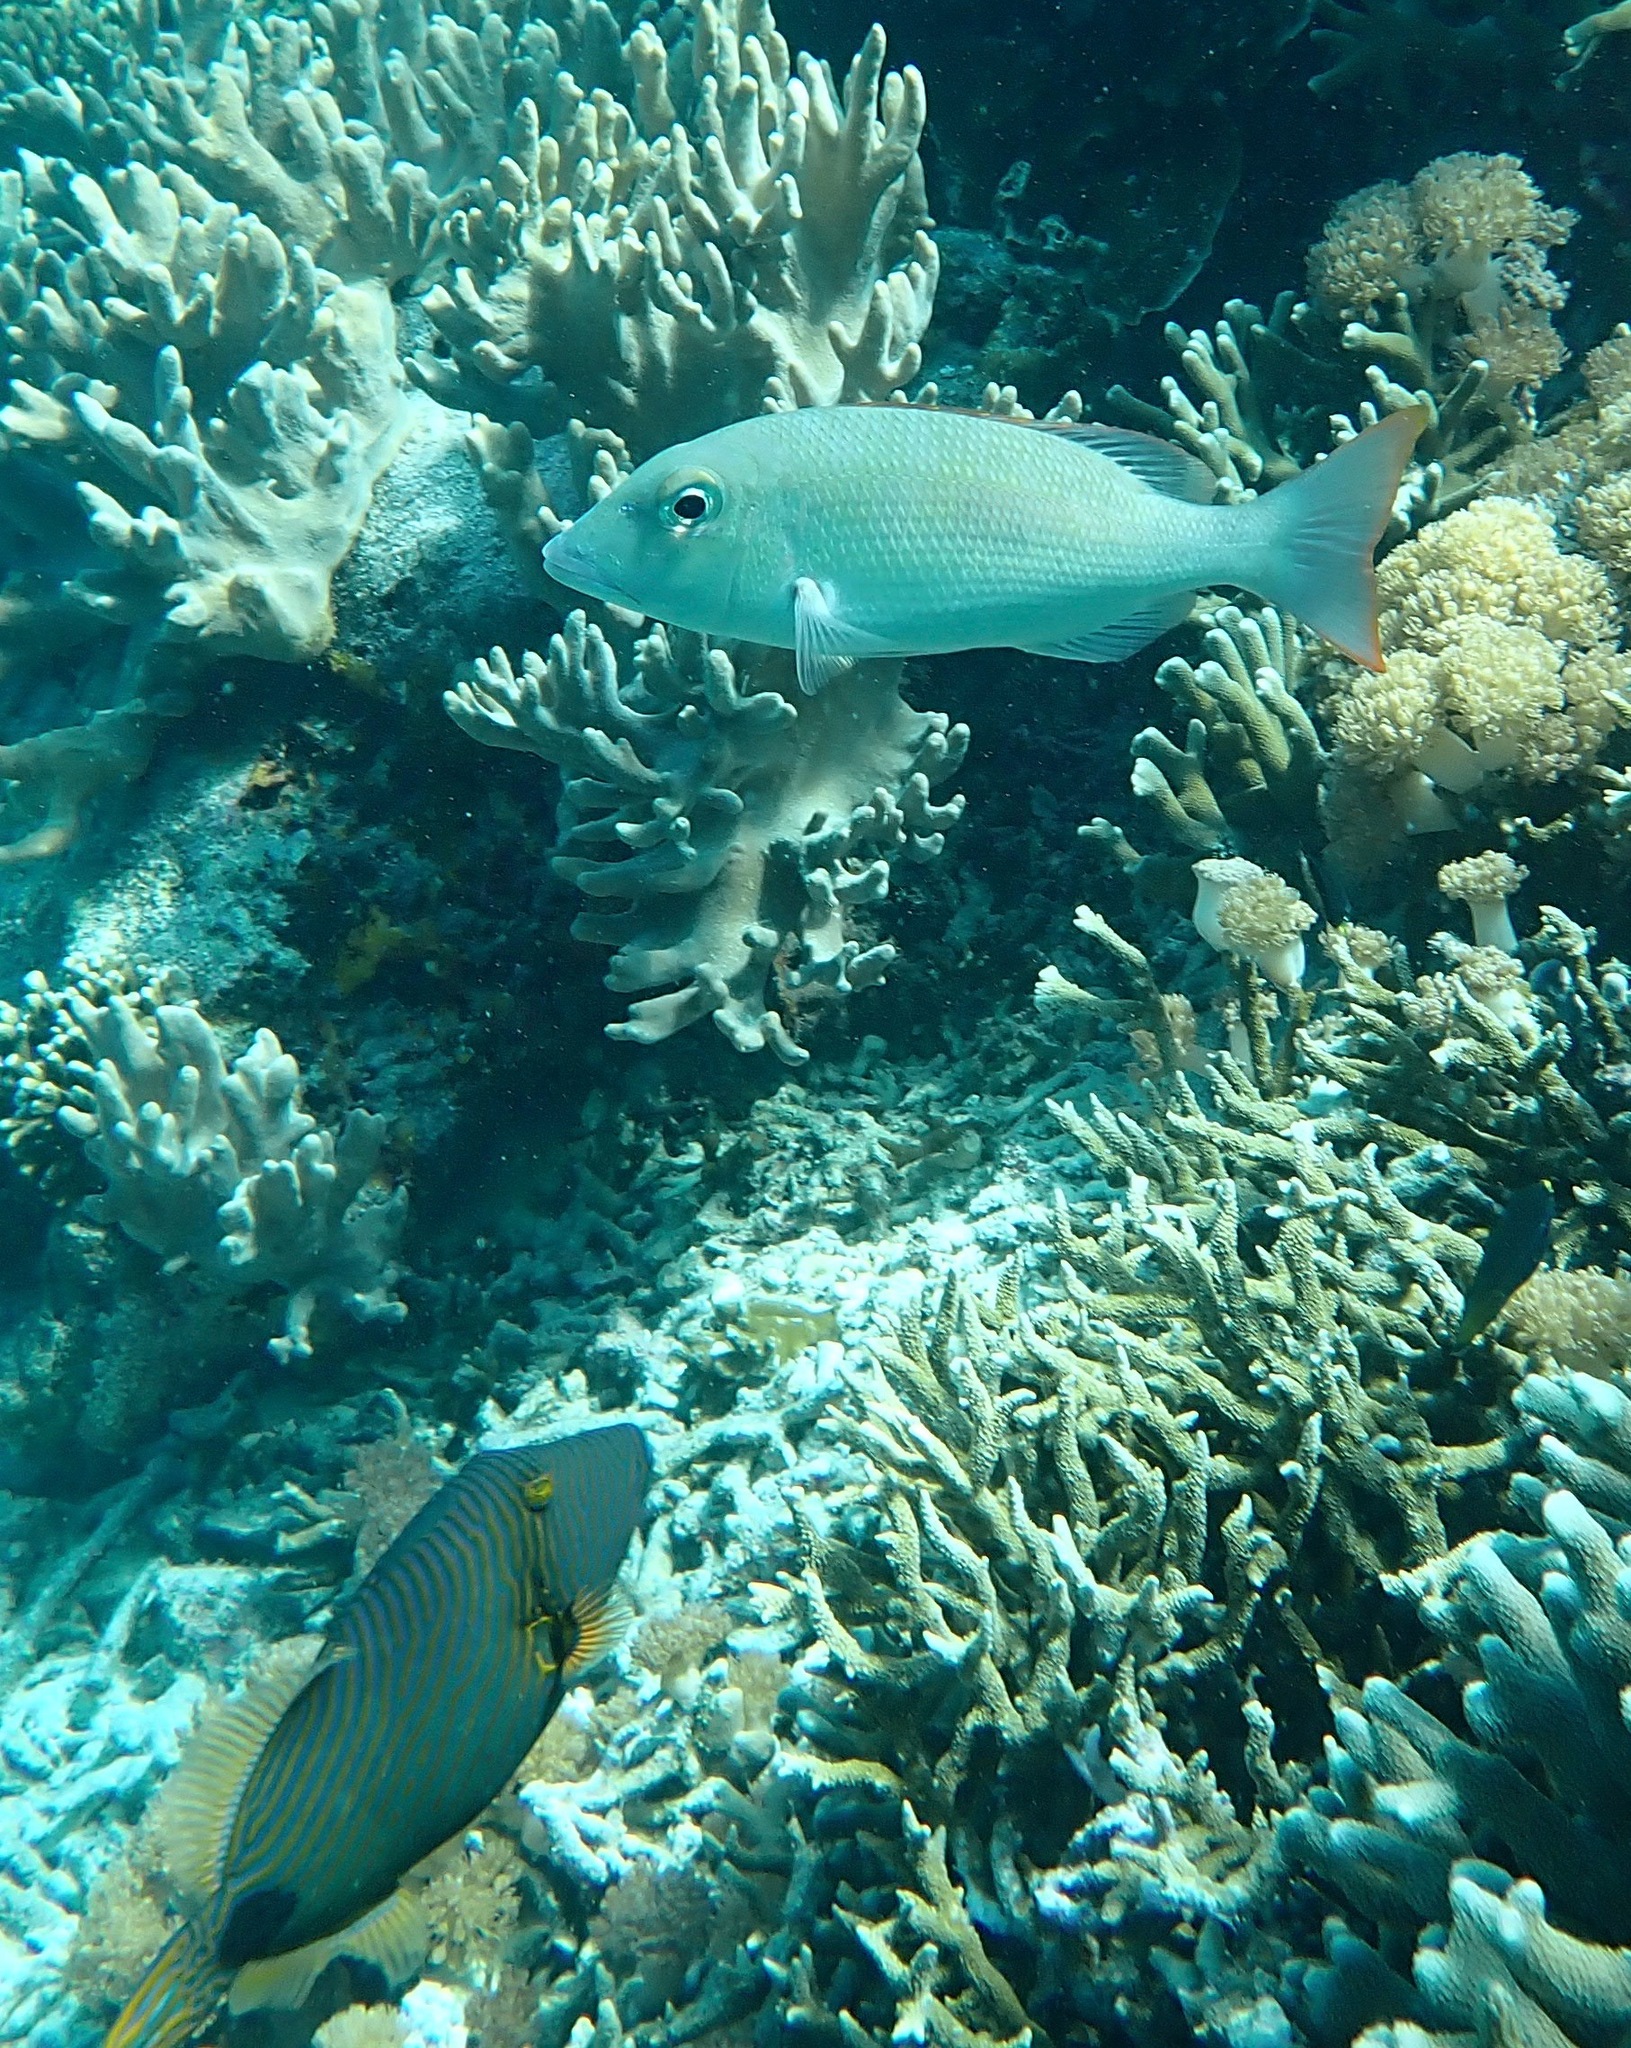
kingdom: Animalia
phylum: Chordata
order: Perciformes
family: Lethrinidae
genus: Lethrinus
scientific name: Lethrinus harak
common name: Blackspot emperor
